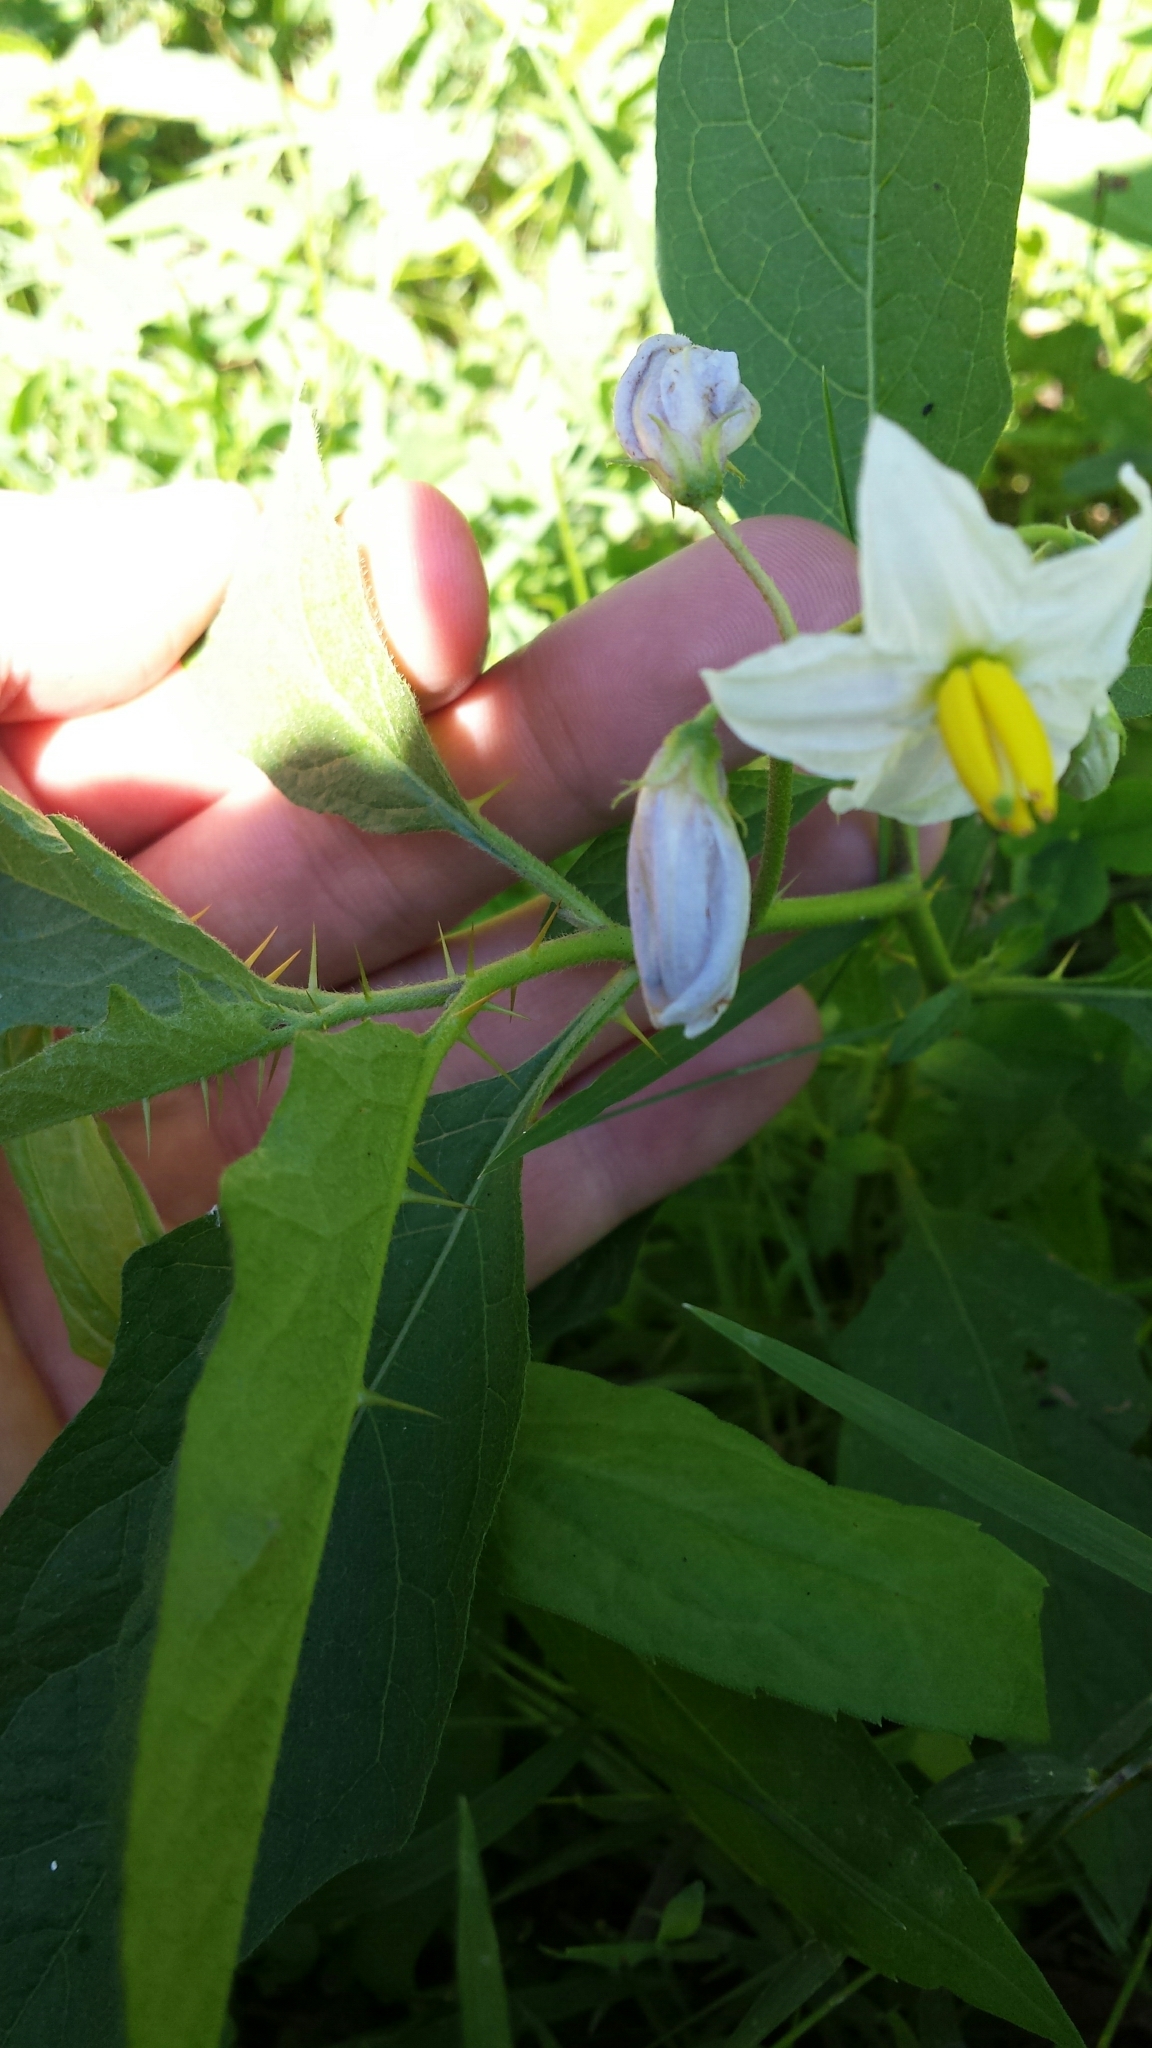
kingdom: Plantae
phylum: Tracheophyta
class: Magnoliopsida
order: Solanales
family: Solanaceae
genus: Solanum
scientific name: Solanum carolinense
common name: Horse-nettle
